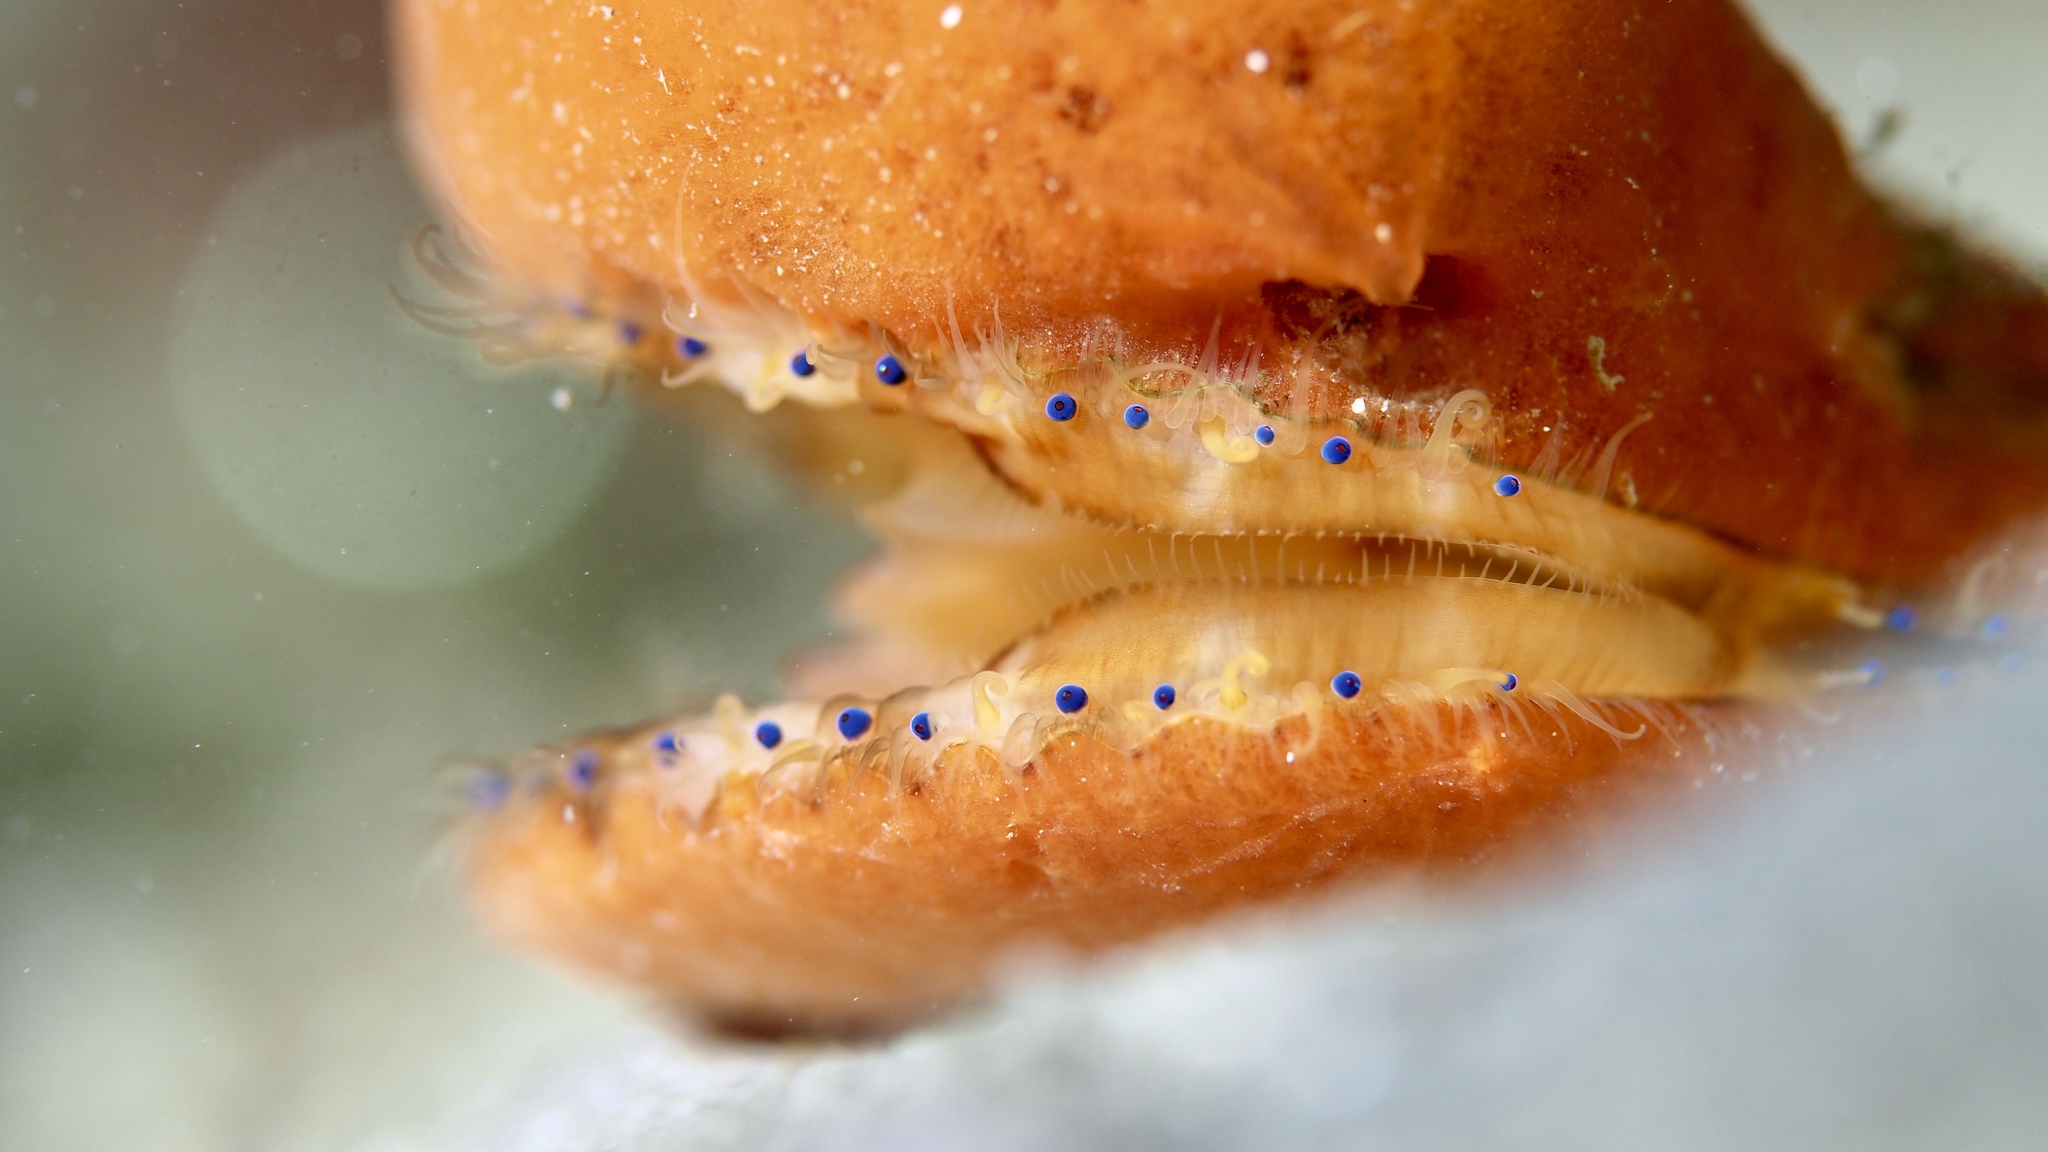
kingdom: Animalia
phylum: Mollusca
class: Bivalvia
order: Pectinida
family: Pectinidae
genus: Mimachlamys
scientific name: Mimachlamys asperrima
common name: Austral scallop
